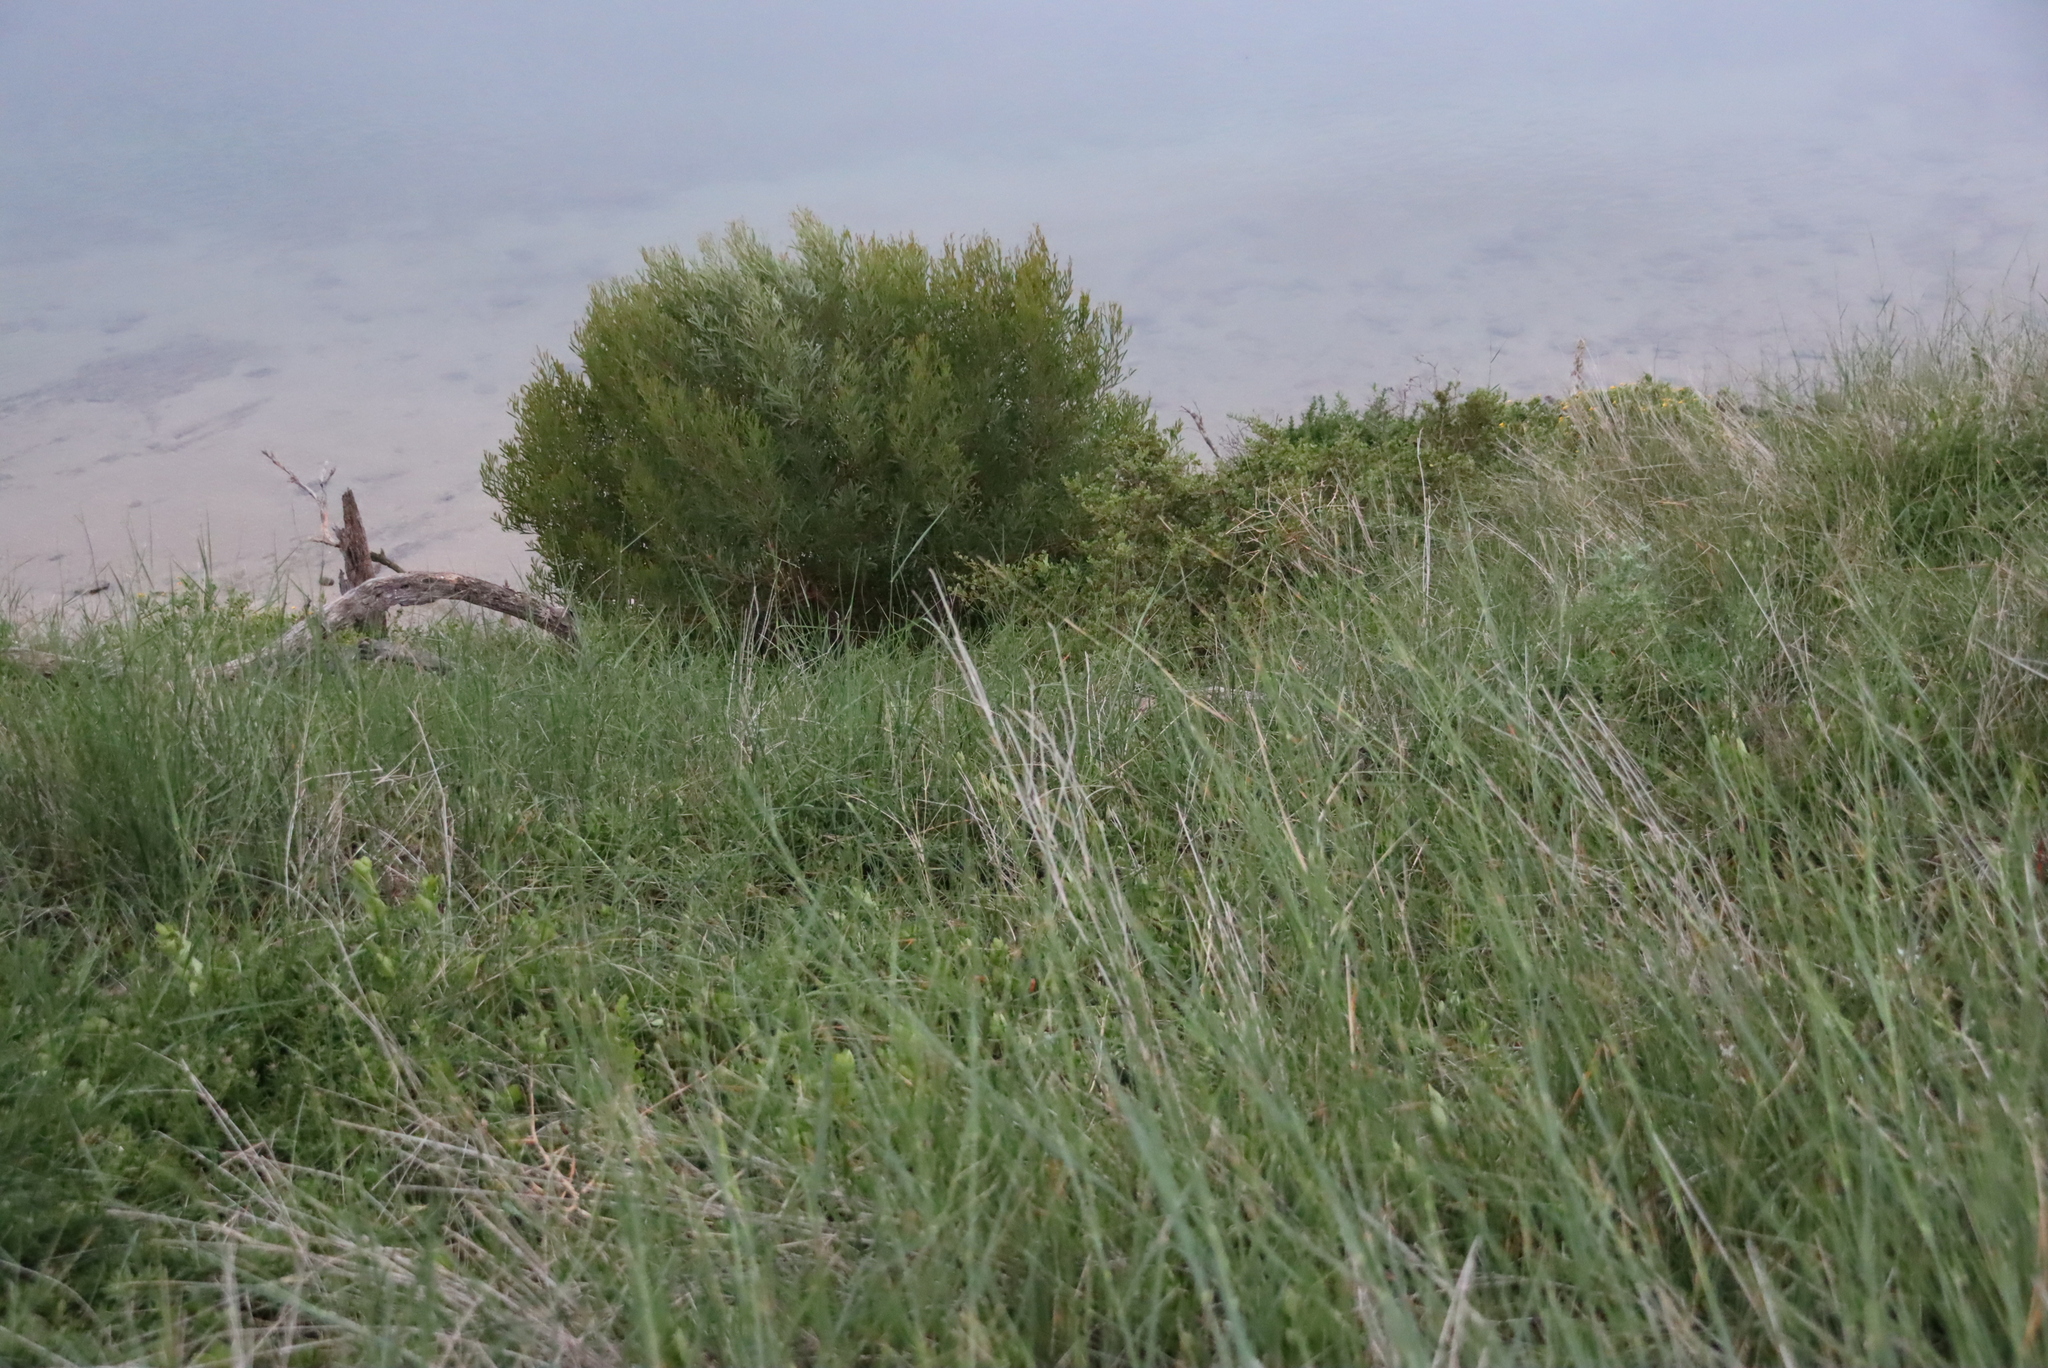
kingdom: Plantae
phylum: Tracheophyta
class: Magnoliopsida
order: Fabales
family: Fabaceae
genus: Acacia
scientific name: Acacia cyclops
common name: Coastal wattle
